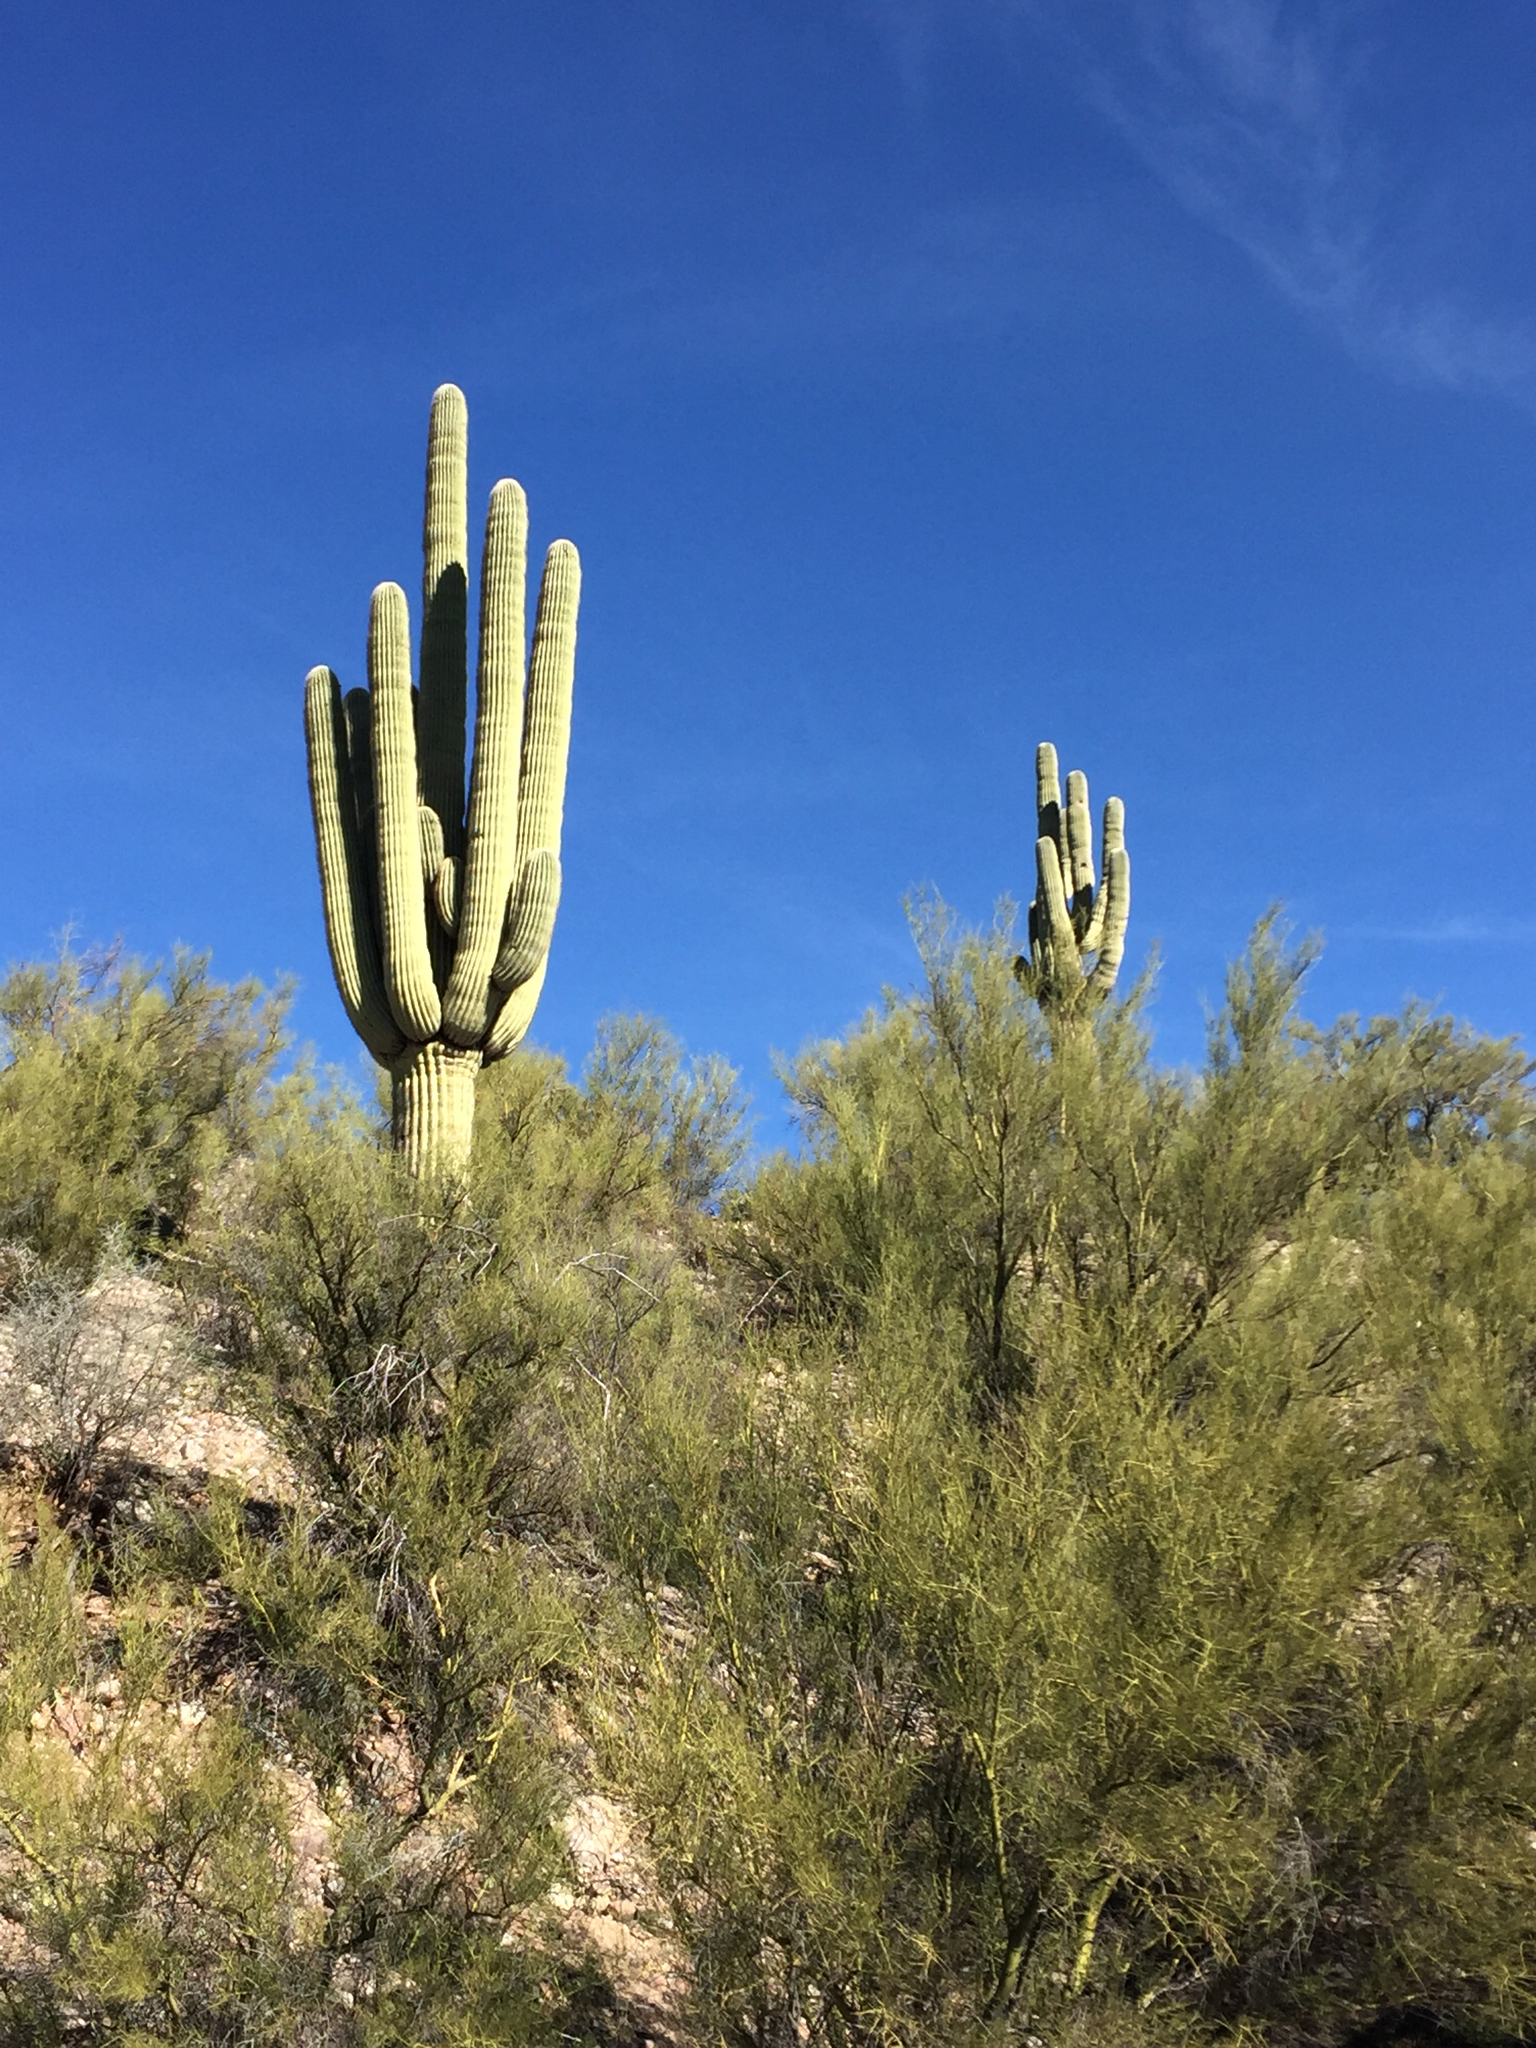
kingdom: Plantae
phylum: Tracheophyta
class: Magnoliopsida
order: Caryophyllales
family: Cactaceae
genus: Carnegiea
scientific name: Carnegiea gigantea
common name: Saguaro
